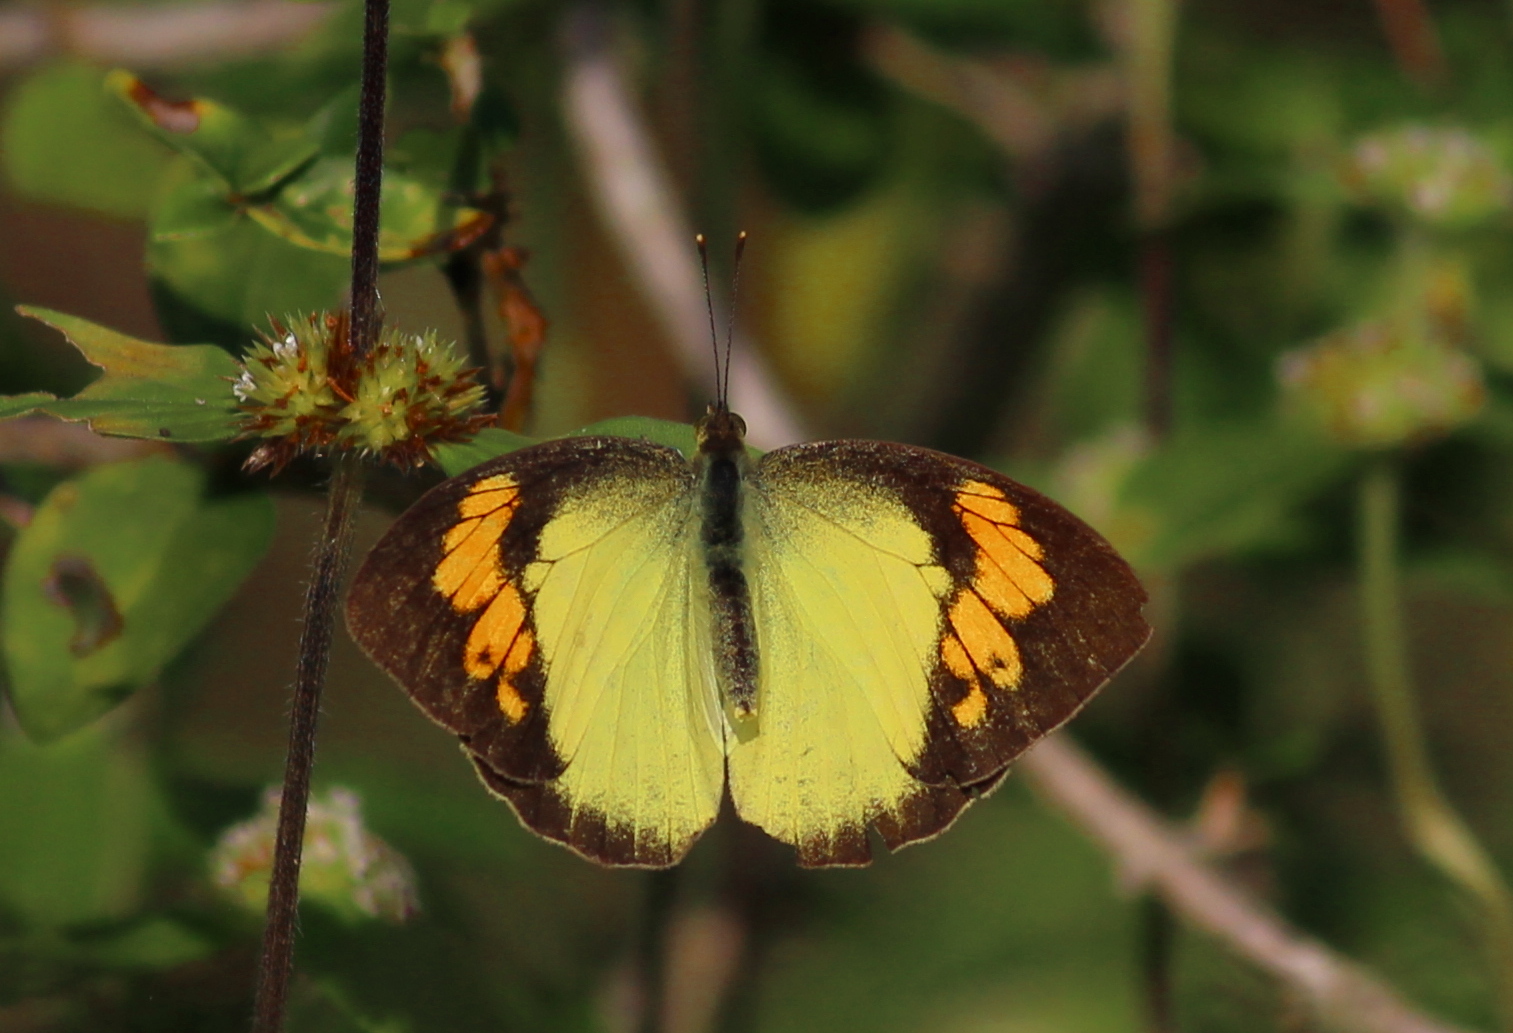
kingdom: Animalia
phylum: Arthropoda
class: Insecta
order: Lepidoptera
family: Pieridae
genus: Ixias
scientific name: Ixias pyrene
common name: Yellow orange tip
